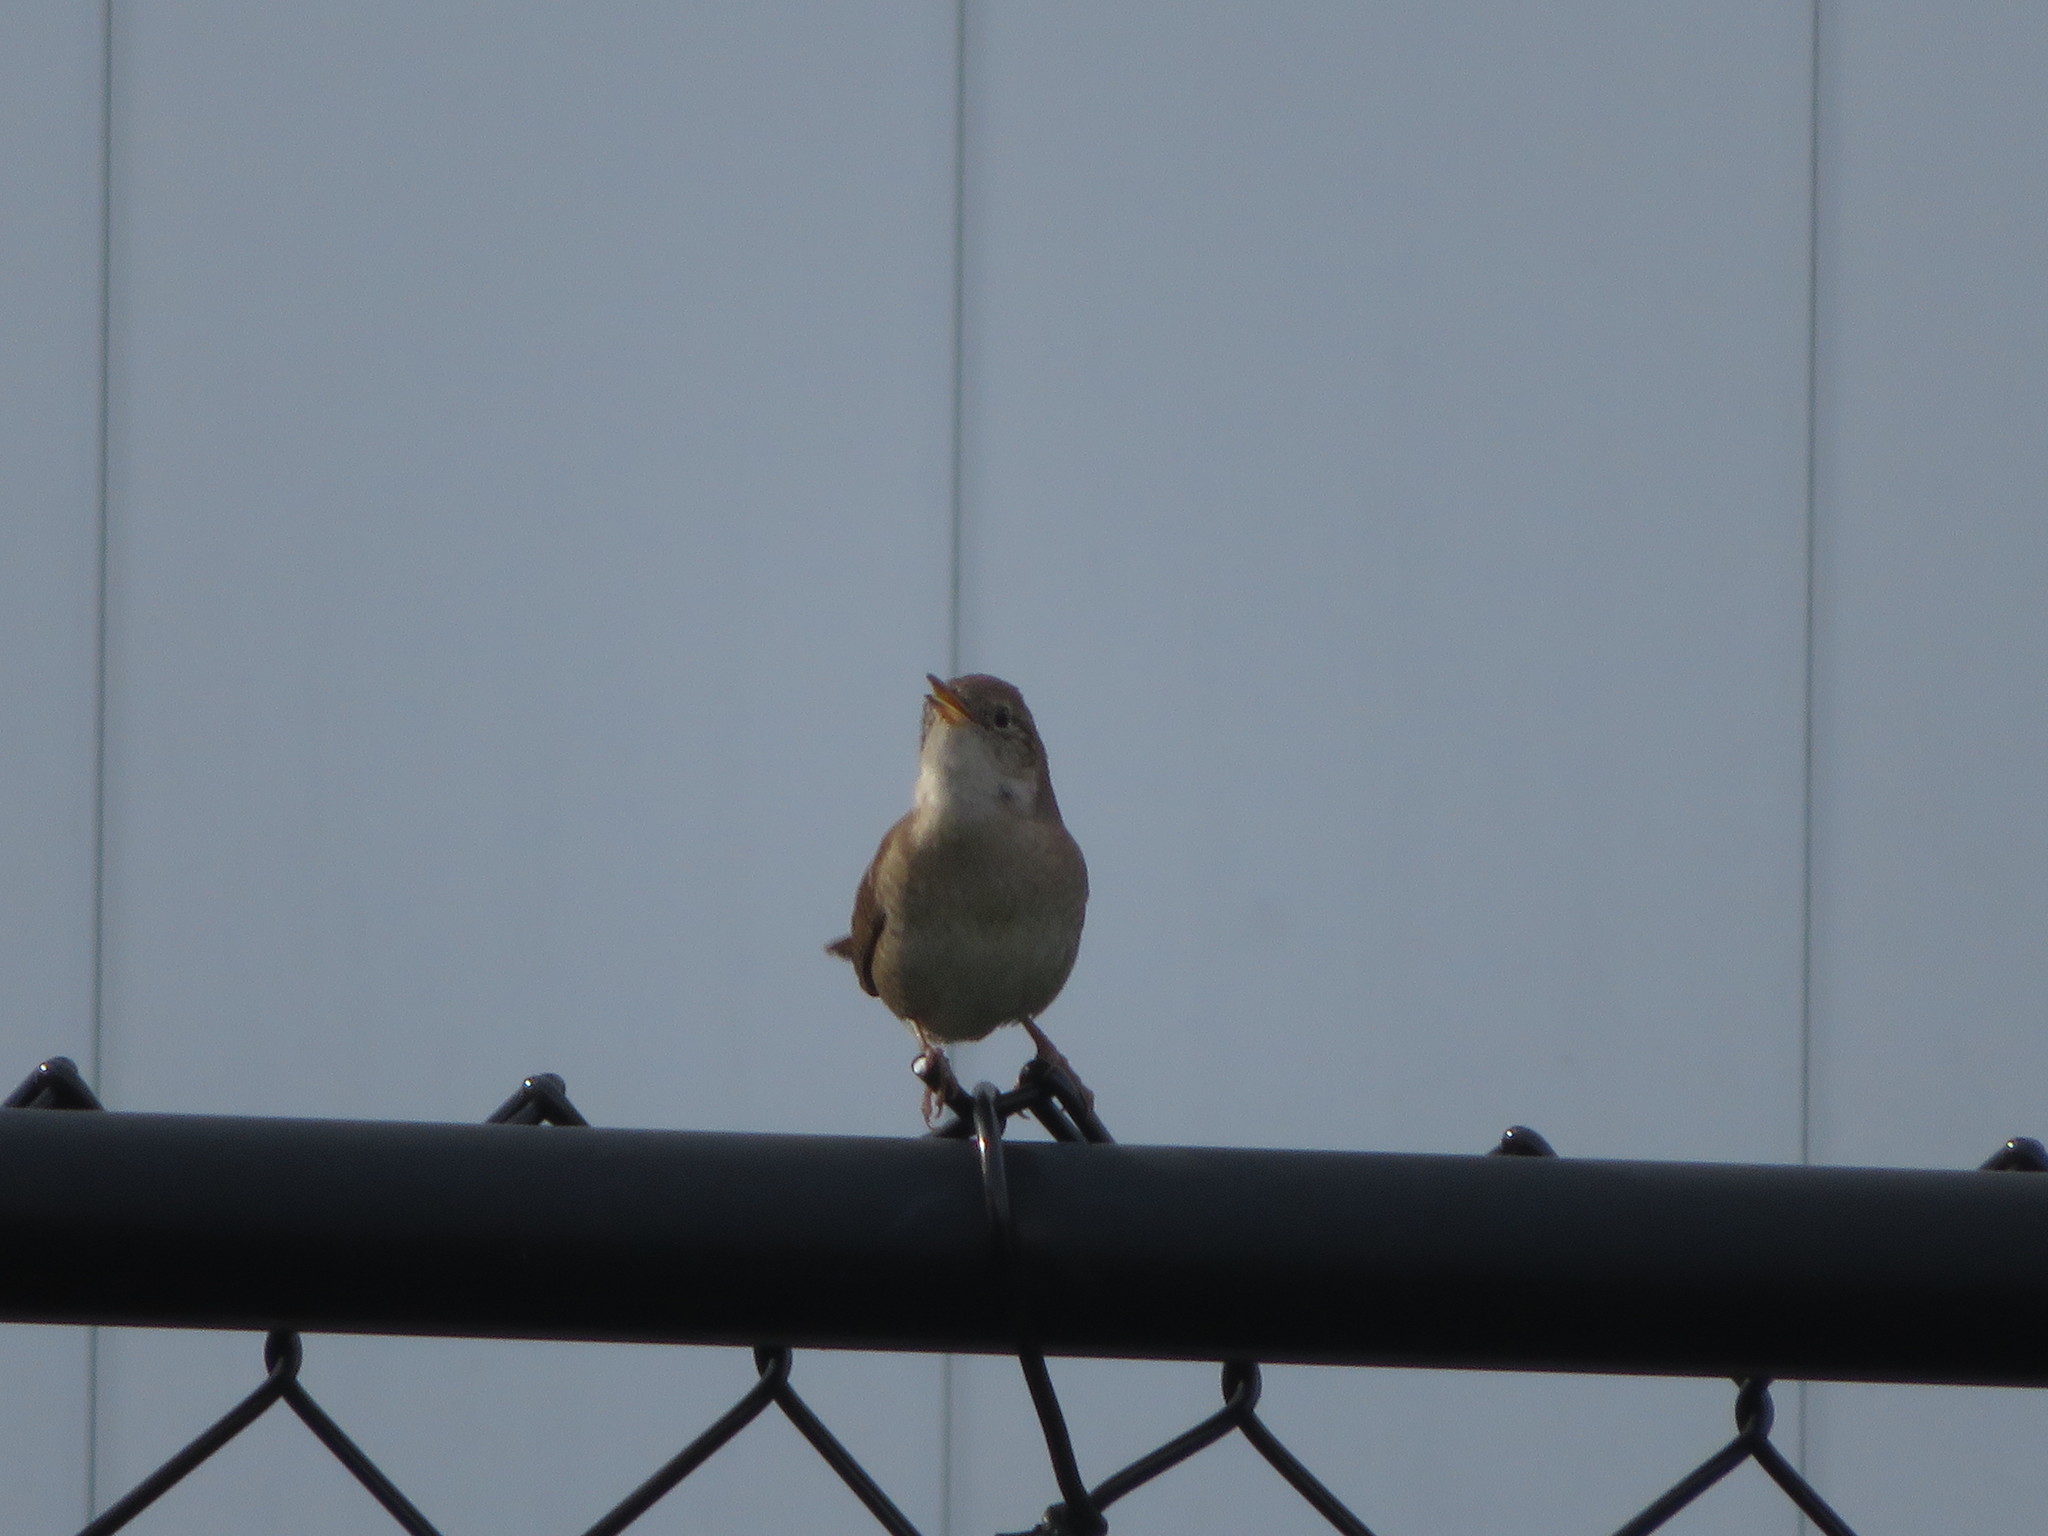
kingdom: Animalia
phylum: Chordata
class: Aves
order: Passeriformes
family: Troglodytidae
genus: Troglodytes
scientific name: Troglodytes aedon
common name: House wren
